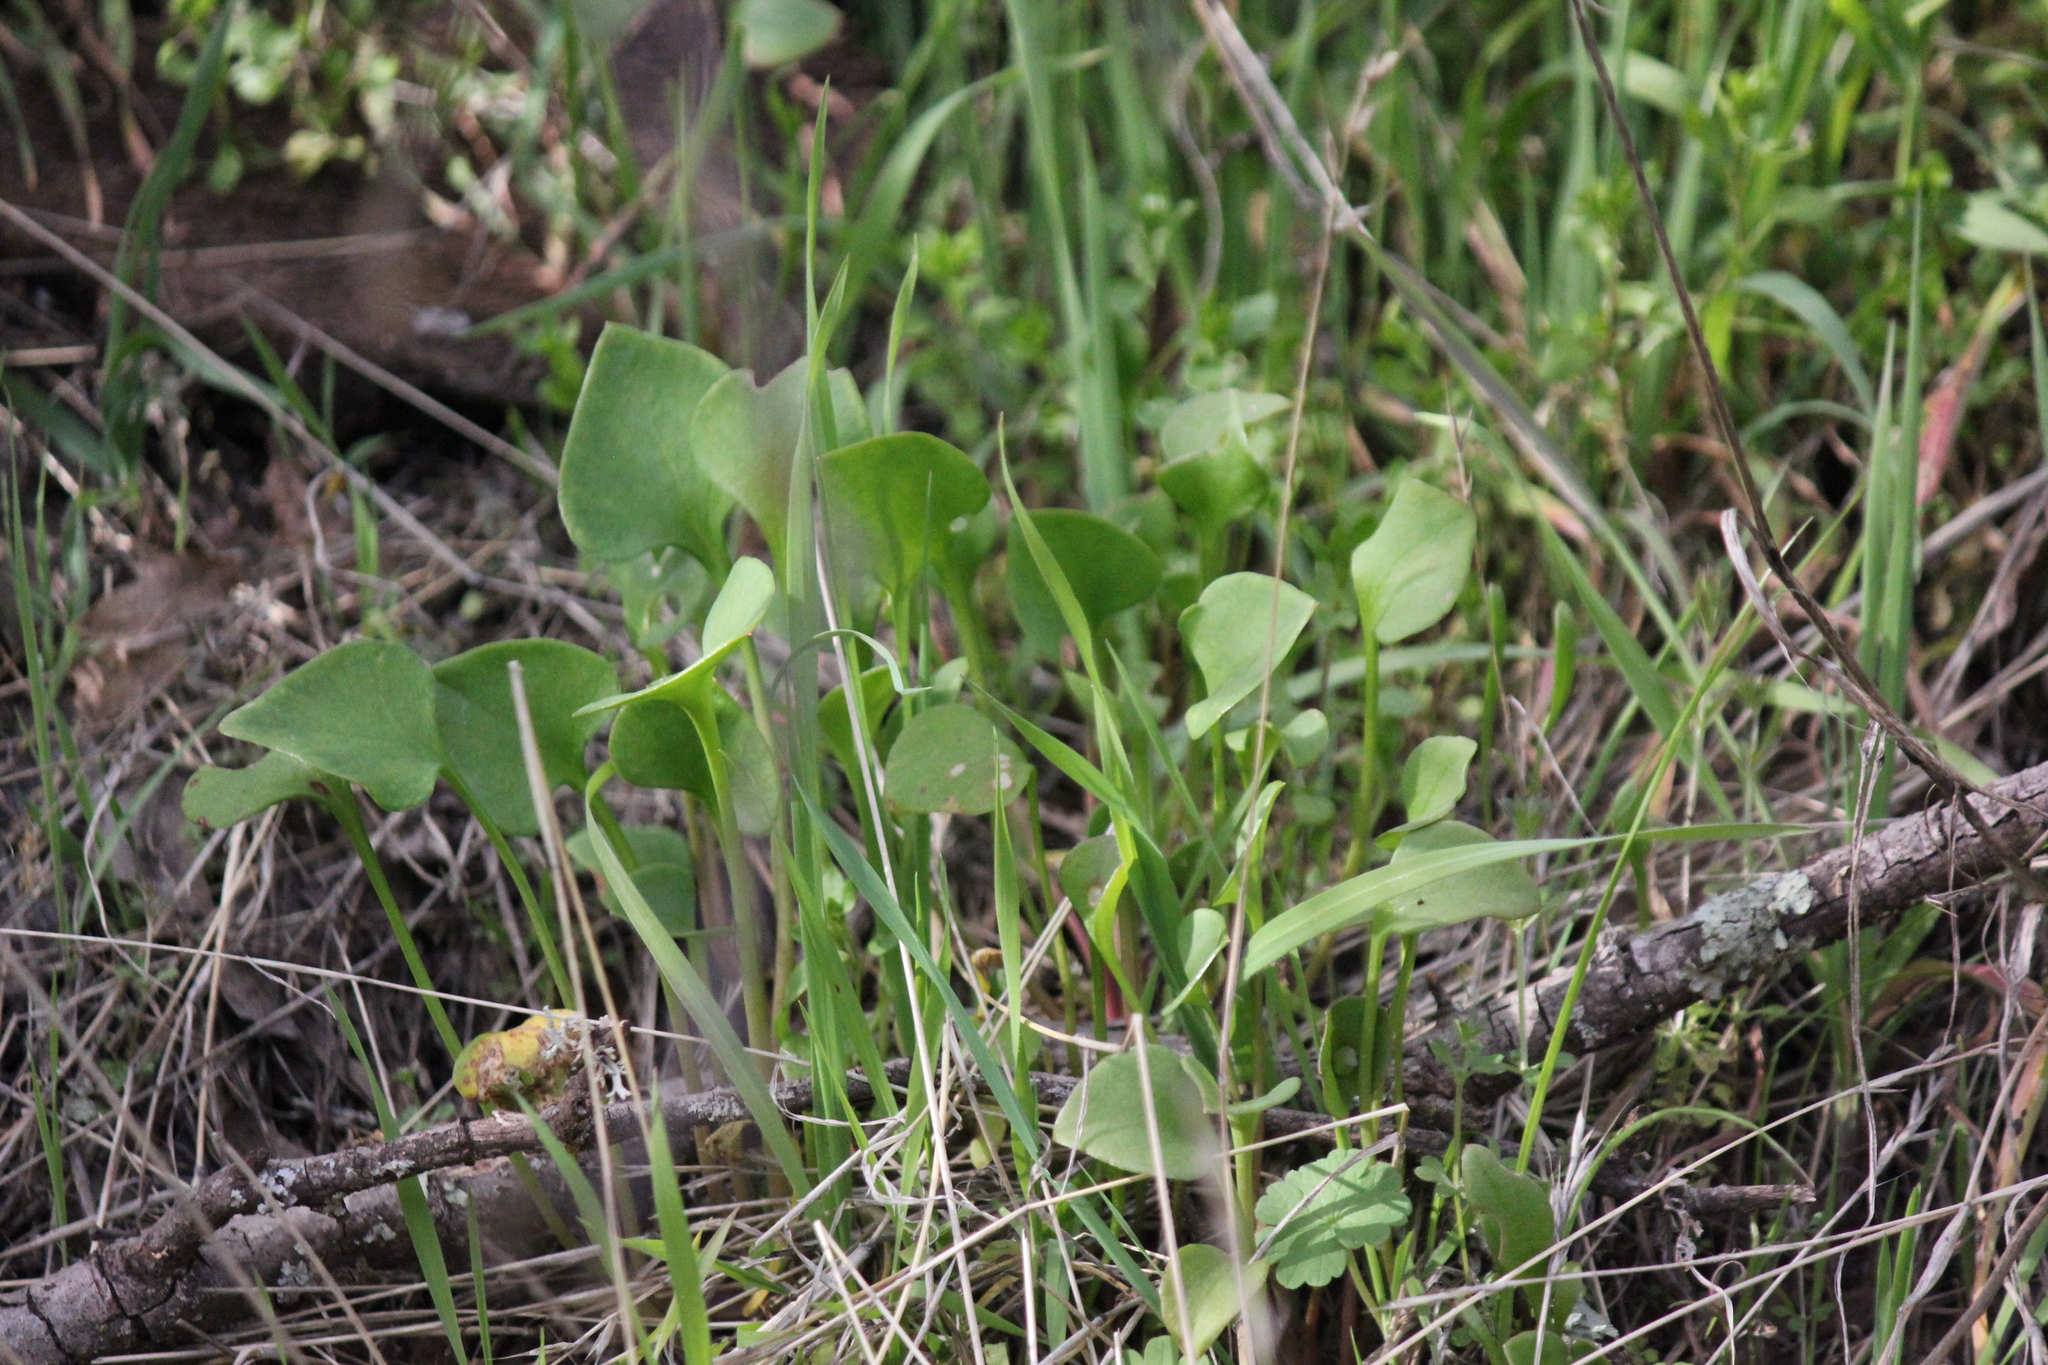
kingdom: Plantae
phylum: Tracheophyta
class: Magnoliopsida
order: Caryophyllales
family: Montiaceae
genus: Claytonia
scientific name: Claytonia perfoliata
